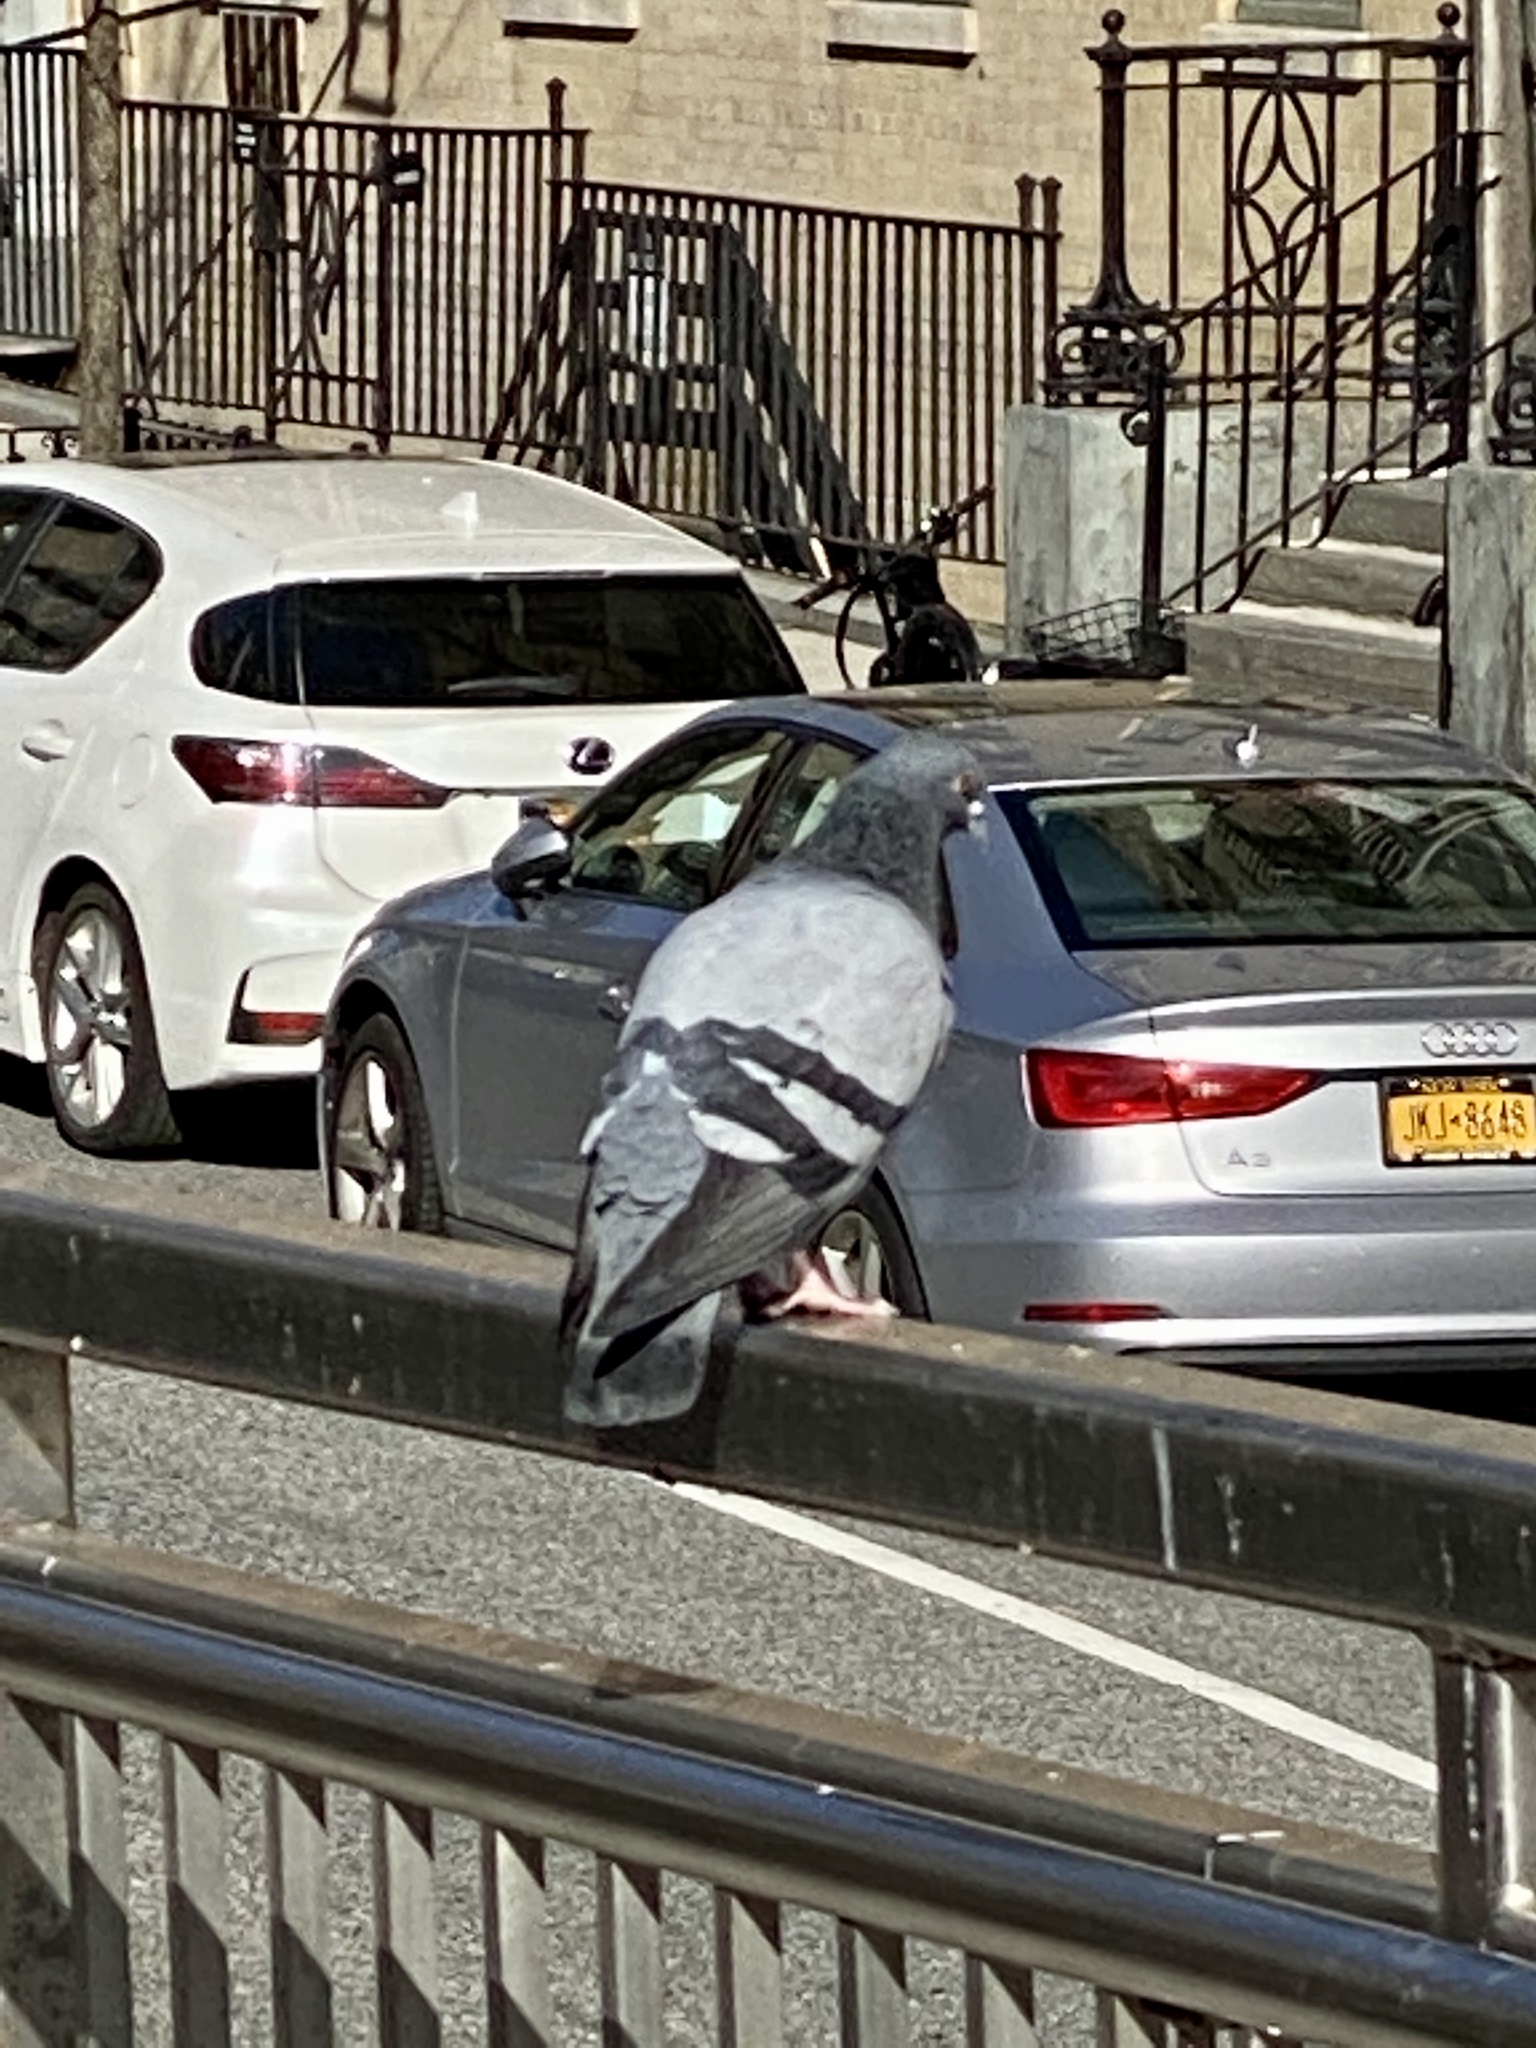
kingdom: Animalia
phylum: Chordata
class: Aves
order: Columbiformes
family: Columbidae
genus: Columba
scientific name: Columba livia
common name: Rock pigeon
